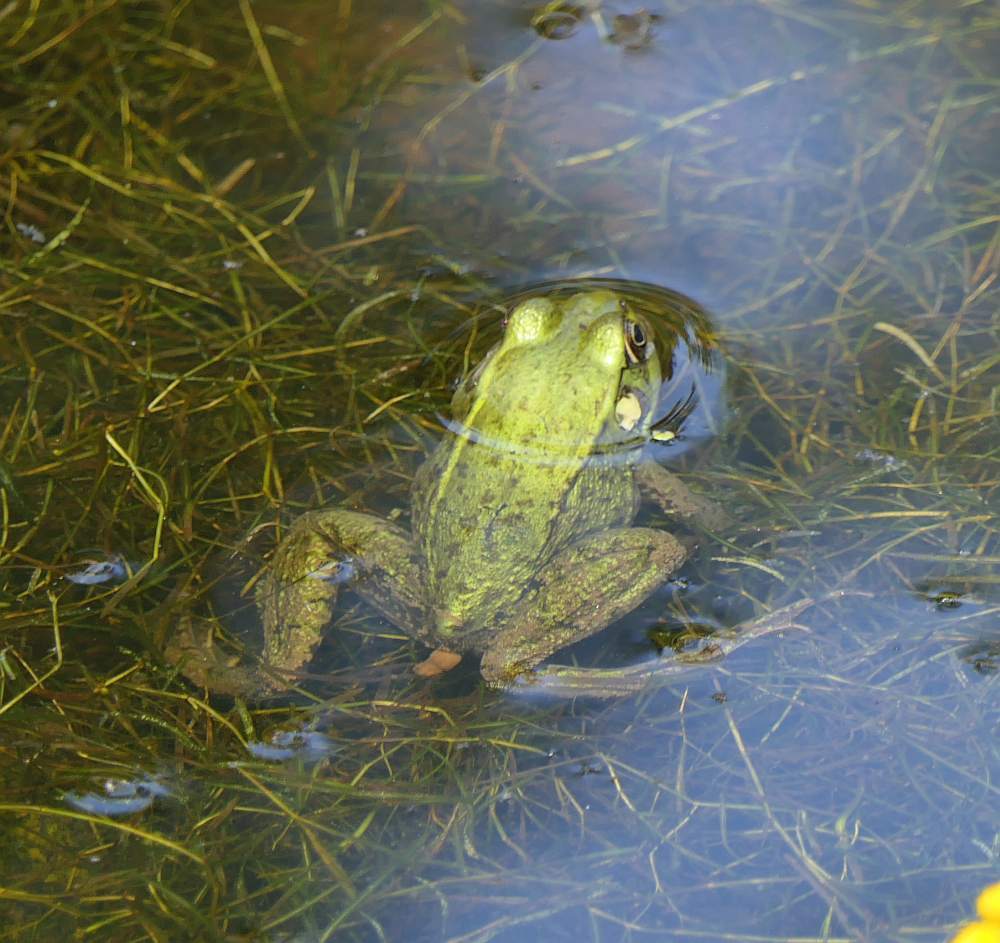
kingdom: Animalia
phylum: Chordata
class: Amphibia
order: Anura
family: Ranidae
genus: Lithobates
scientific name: Lithobates clamitans
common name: Green frog
